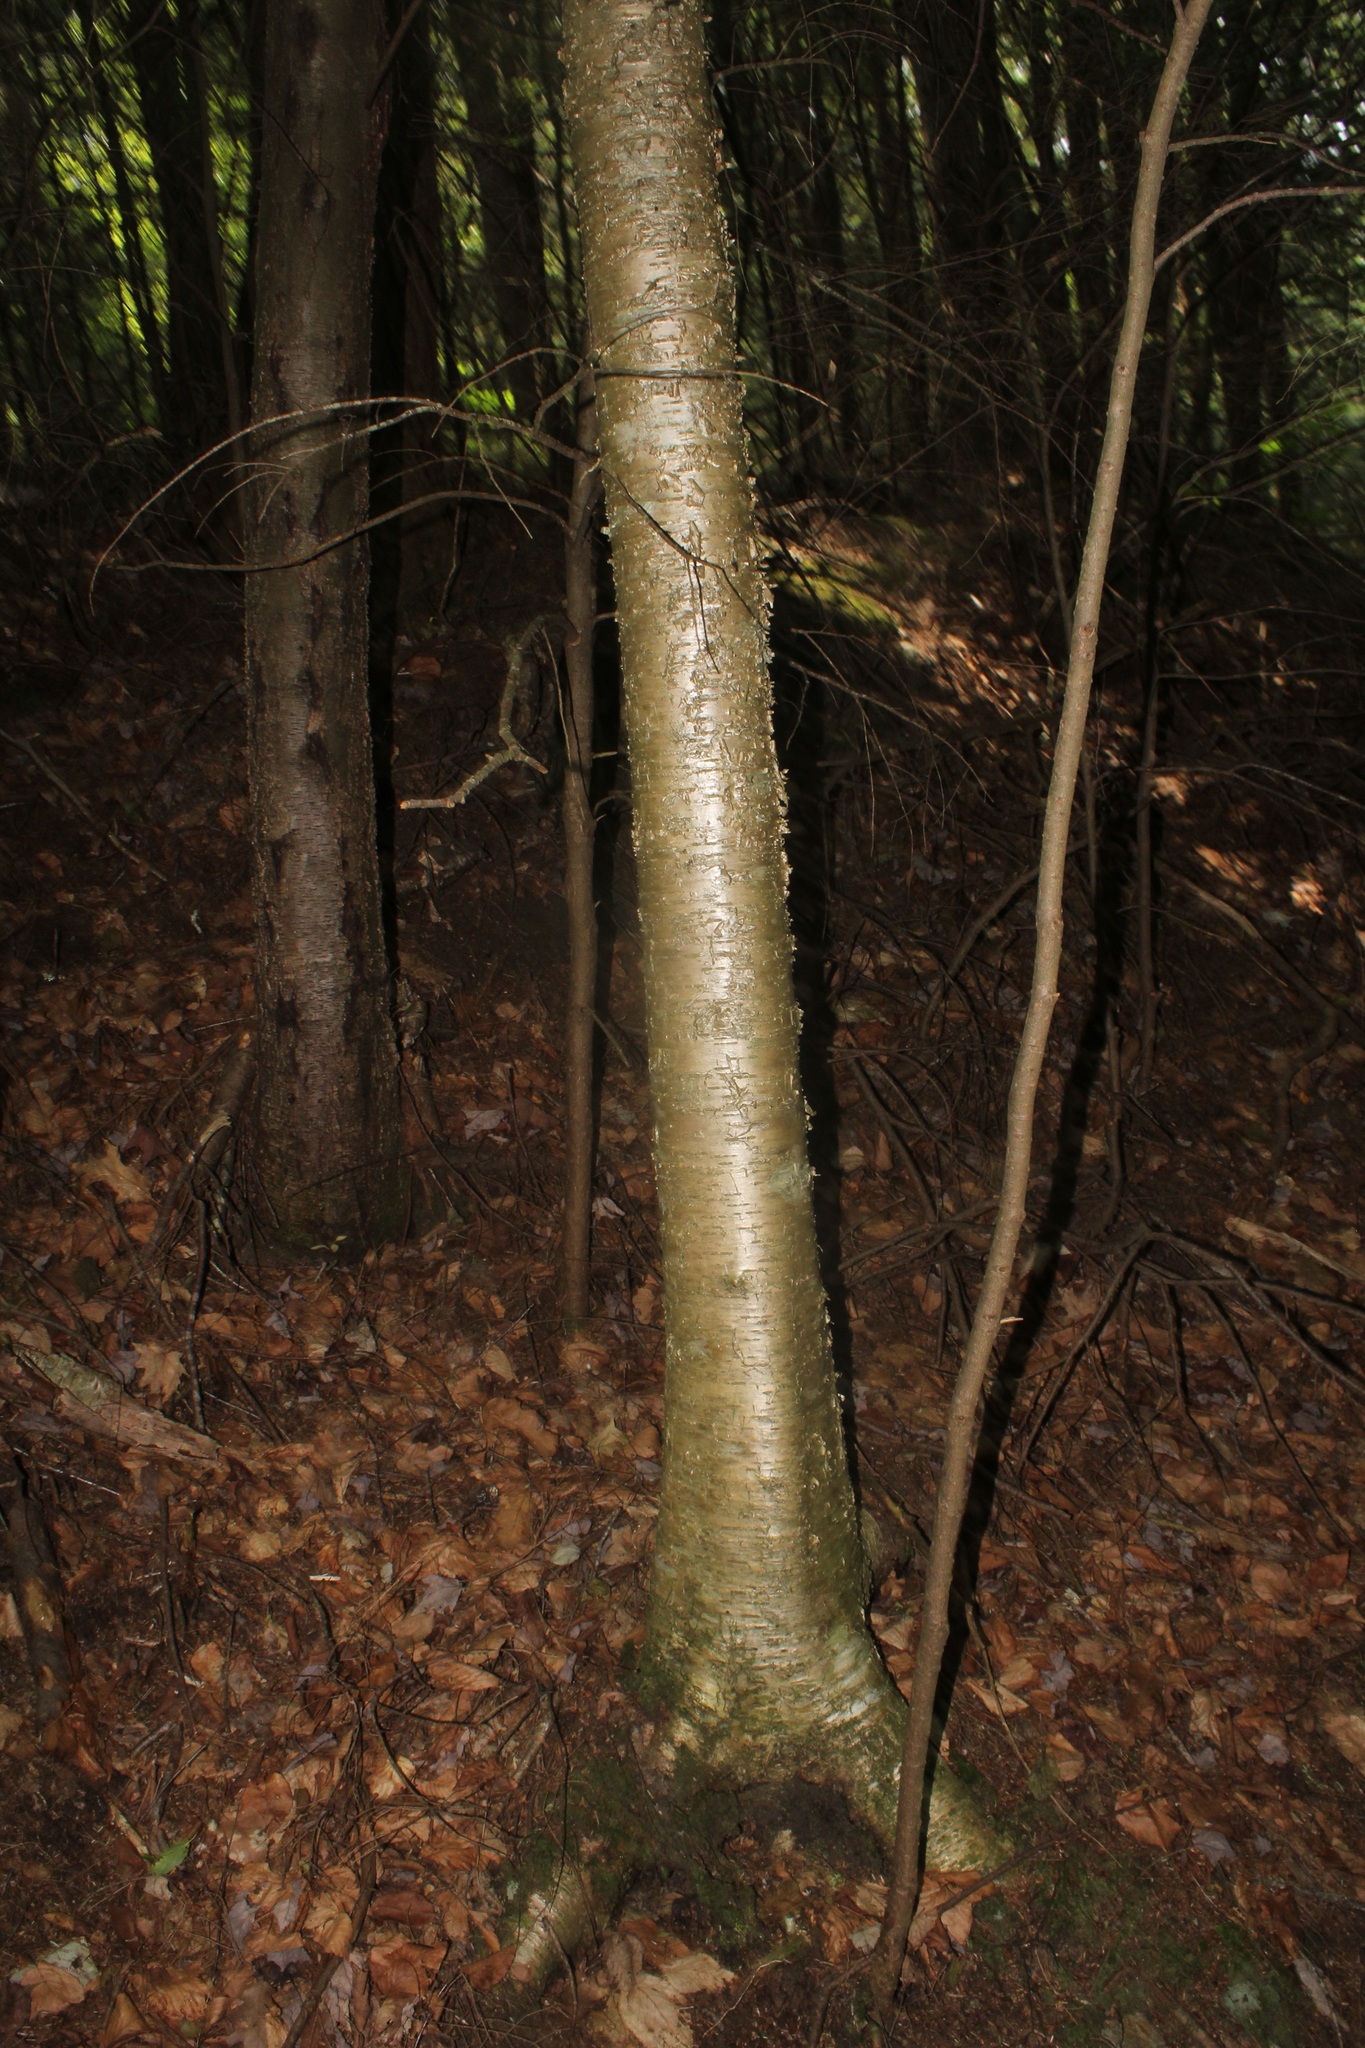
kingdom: Plantae
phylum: Tracheophyta
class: Magnoliopsida
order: Fagales
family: Betulaceae
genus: Betula
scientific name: Betula alleghaniensis
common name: Yellow birch
